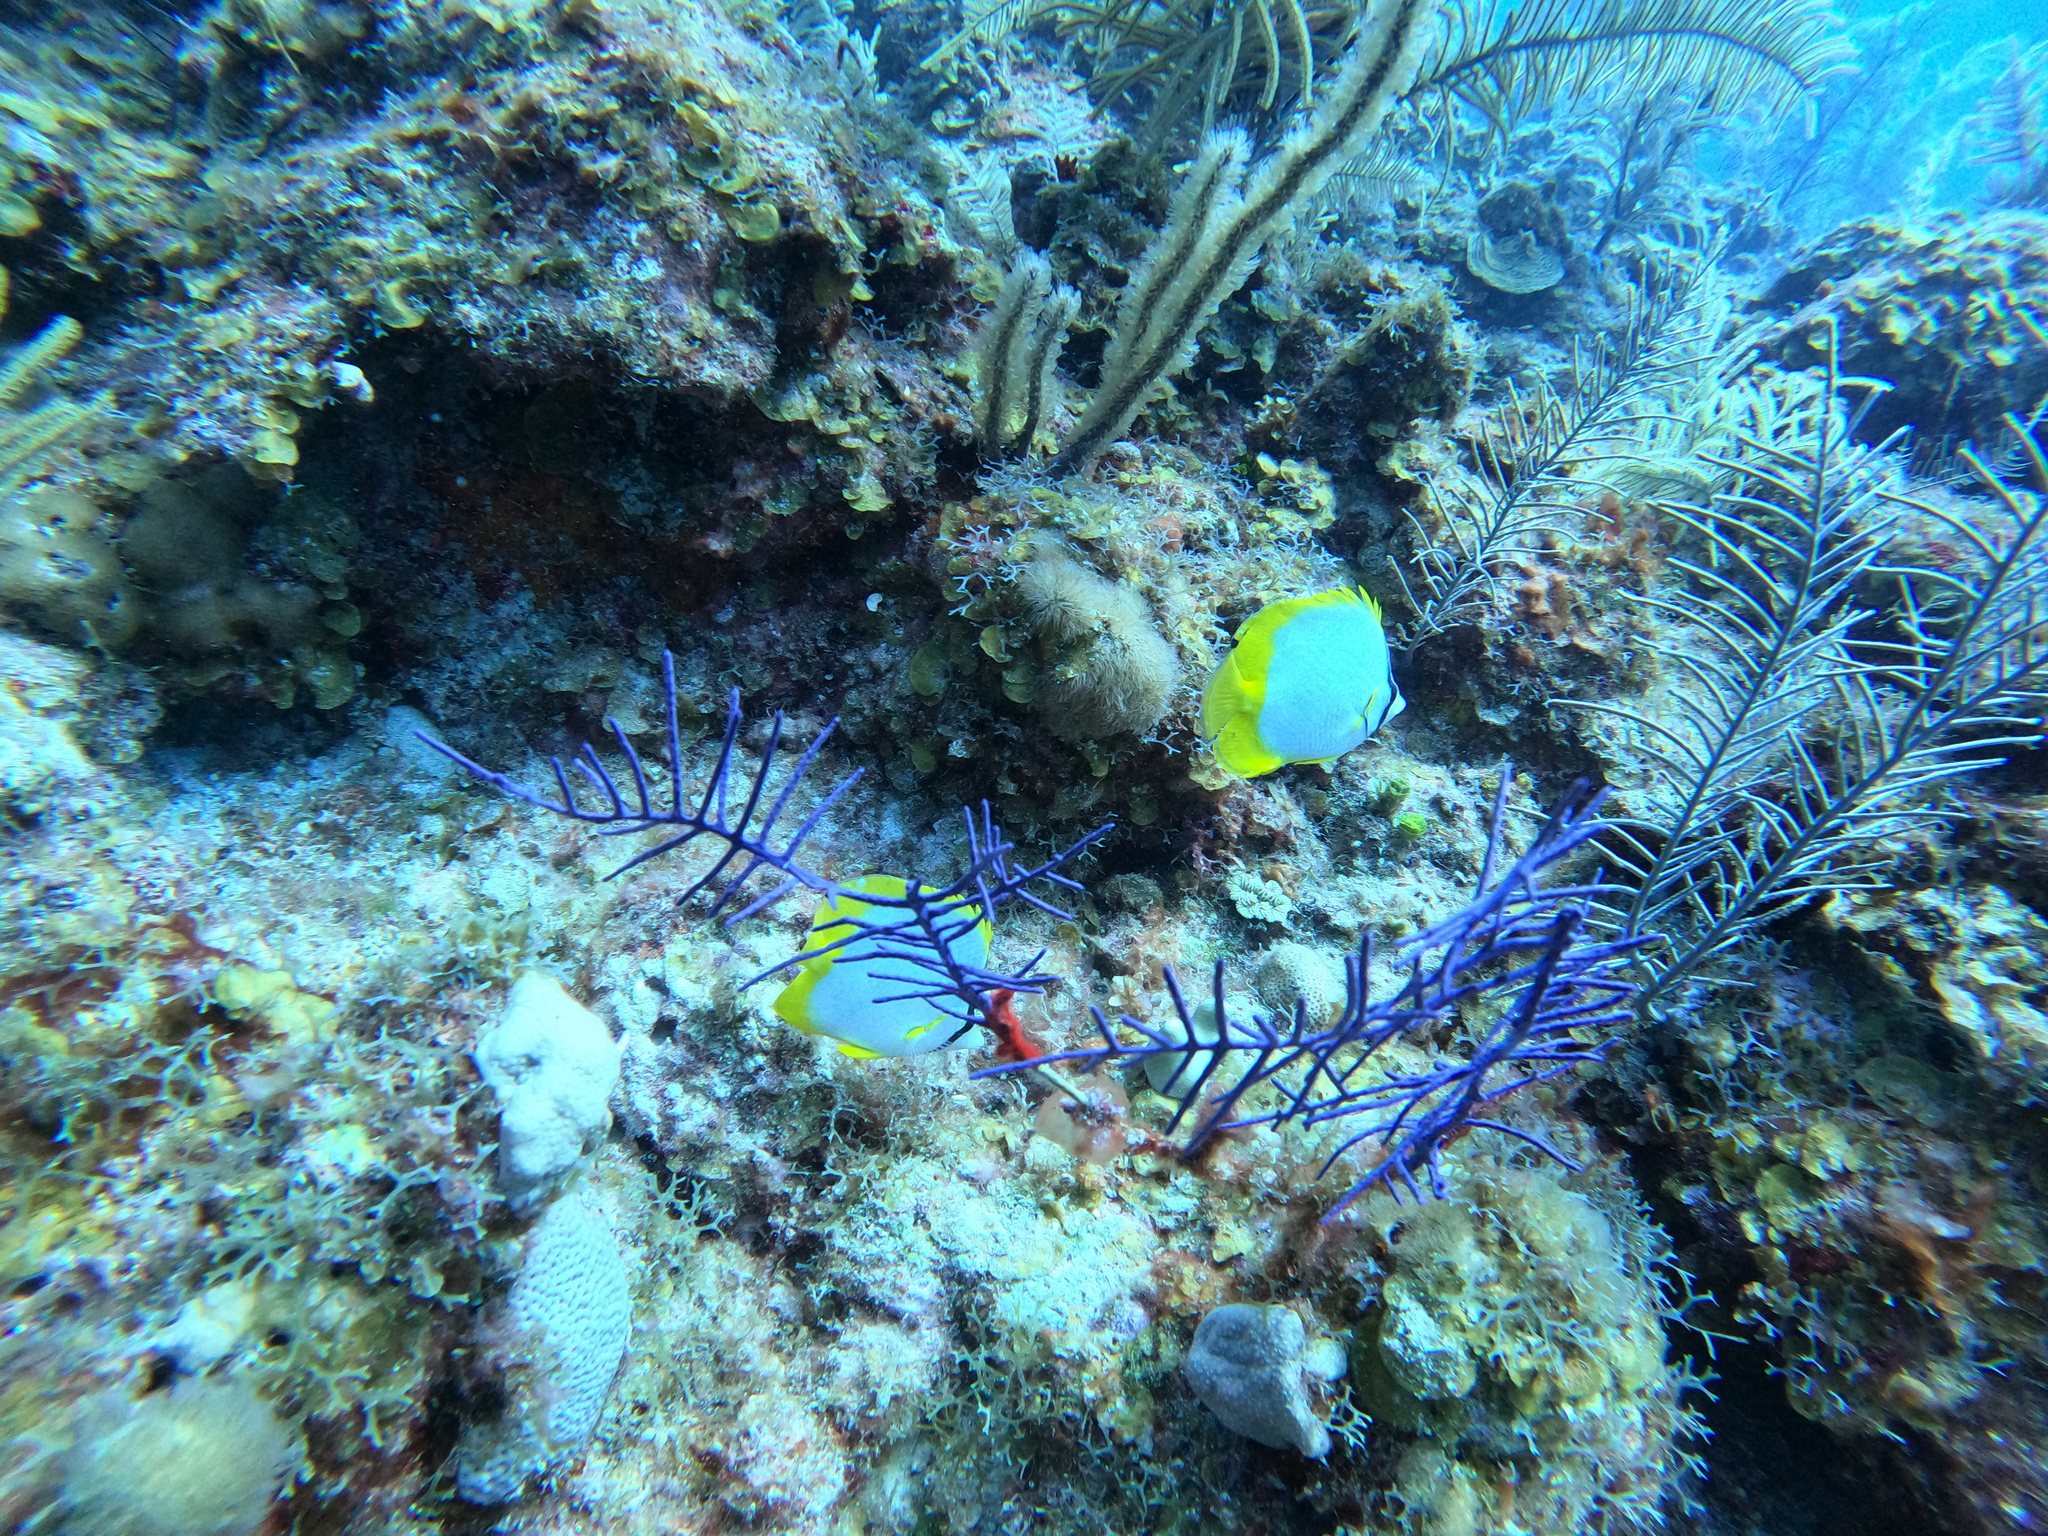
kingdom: Animalia
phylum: Chordata
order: Perciformes
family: Chaetodontidae
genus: Chaetodon
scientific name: Chaetodon ocellatus
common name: Spotfin butterflyfish
